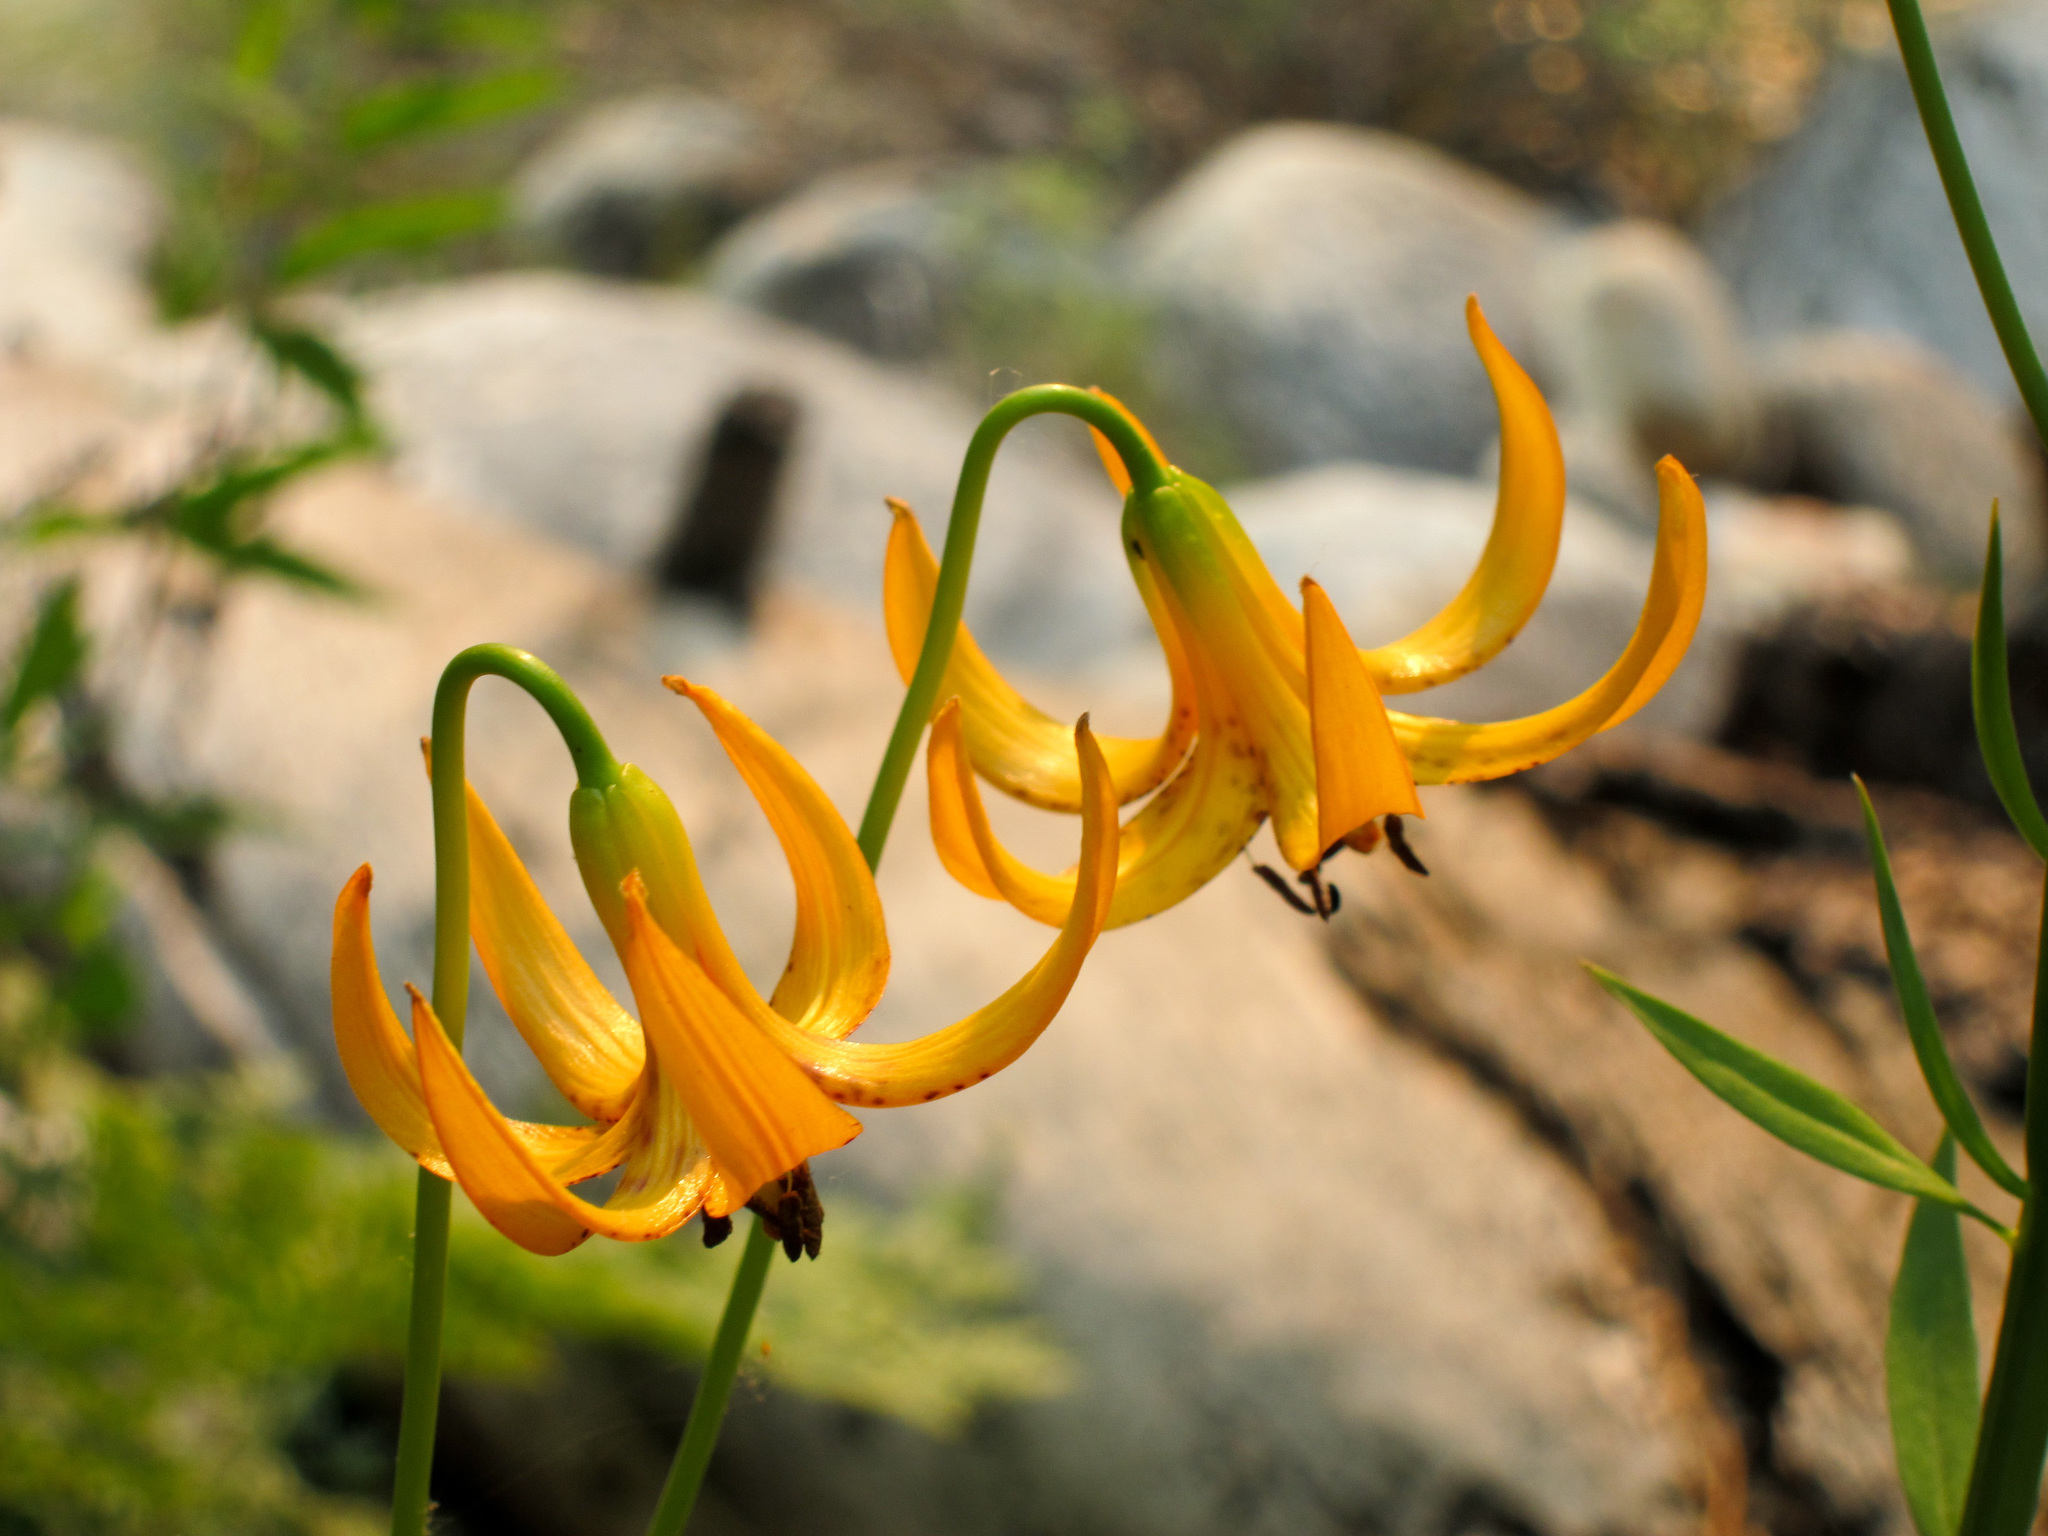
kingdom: Plantae
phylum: Tracheophyta
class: Liliopsida
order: Liliales
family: Liliaceae
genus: Lilium
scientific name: Lilium kelleyanum
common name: Kelley's lily
